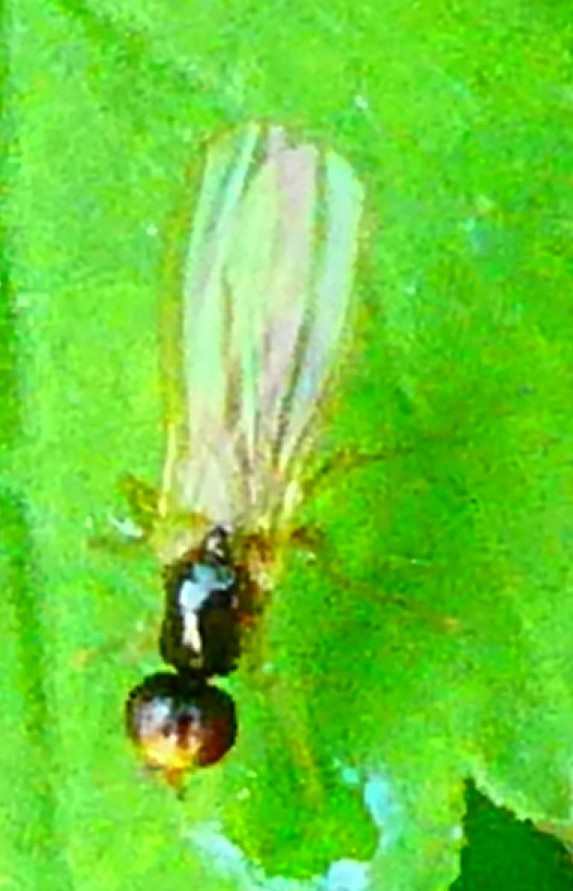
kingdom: Animalia
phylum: Arthropoda
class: Insecta
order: Diptera
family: Psilidae
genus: Chamaepsila
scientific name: Chamaepsila
